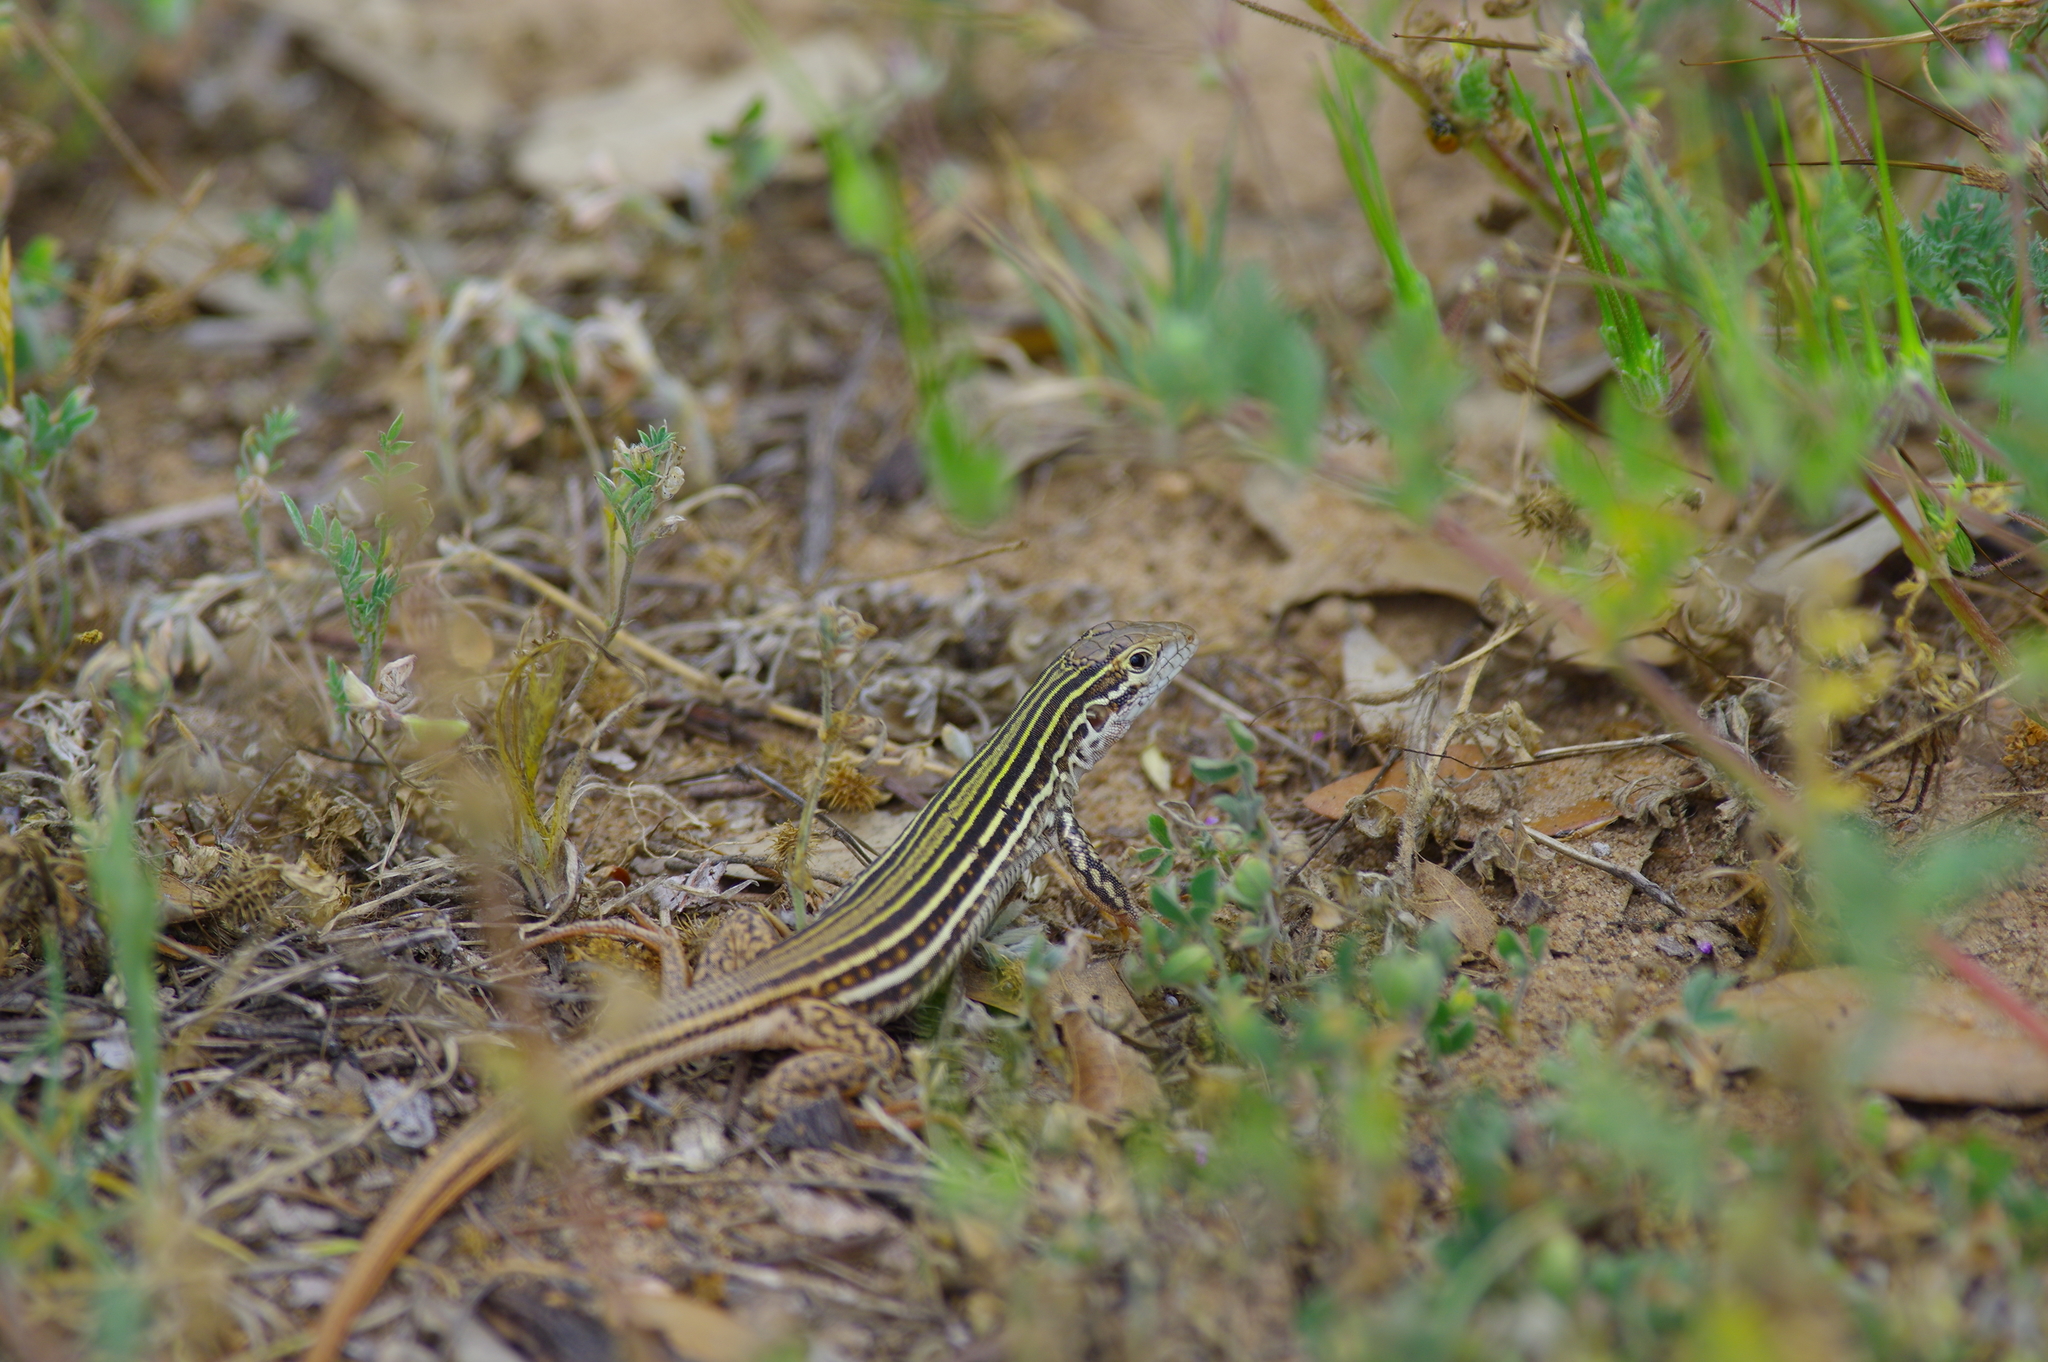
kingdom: Animalia
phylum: Chordata
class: Squamata
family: Teiidae
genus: Aspidoscelis
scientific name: Aspidoscelis gularis
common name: Eastern spotted whiptail
